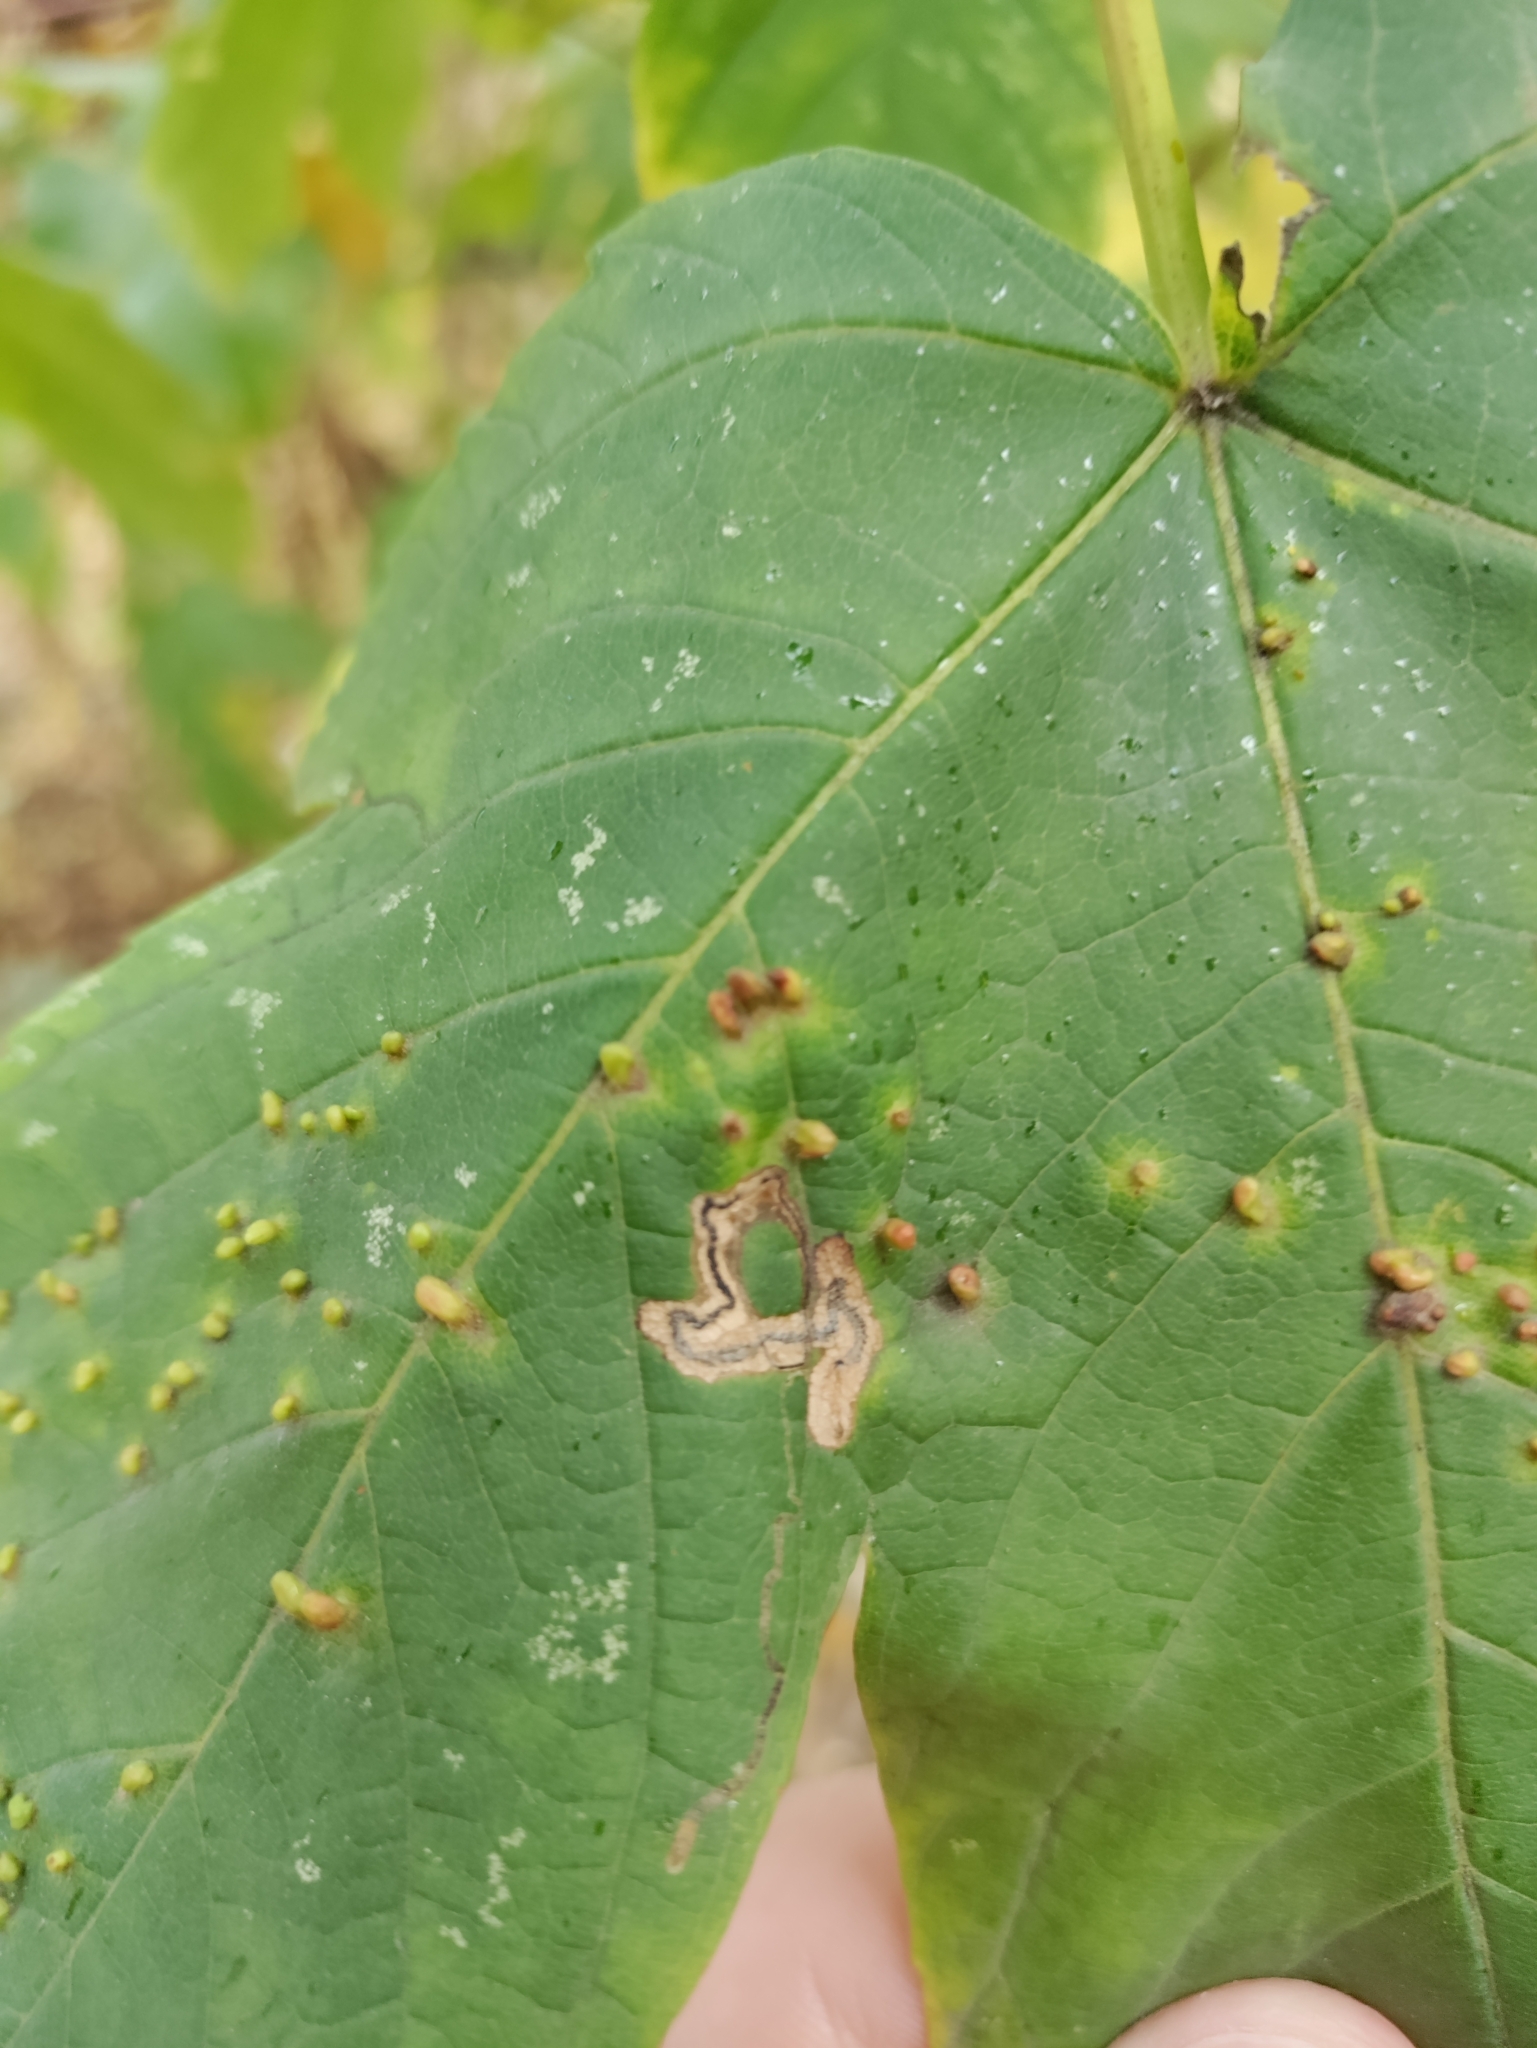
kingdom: Animalia
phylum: Arthropoda
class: Insecta
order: Lepidoptera
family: Nepticulidae
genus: Stigmella
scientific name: Stigmella speciosa
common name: Barred sycamore pigmy
